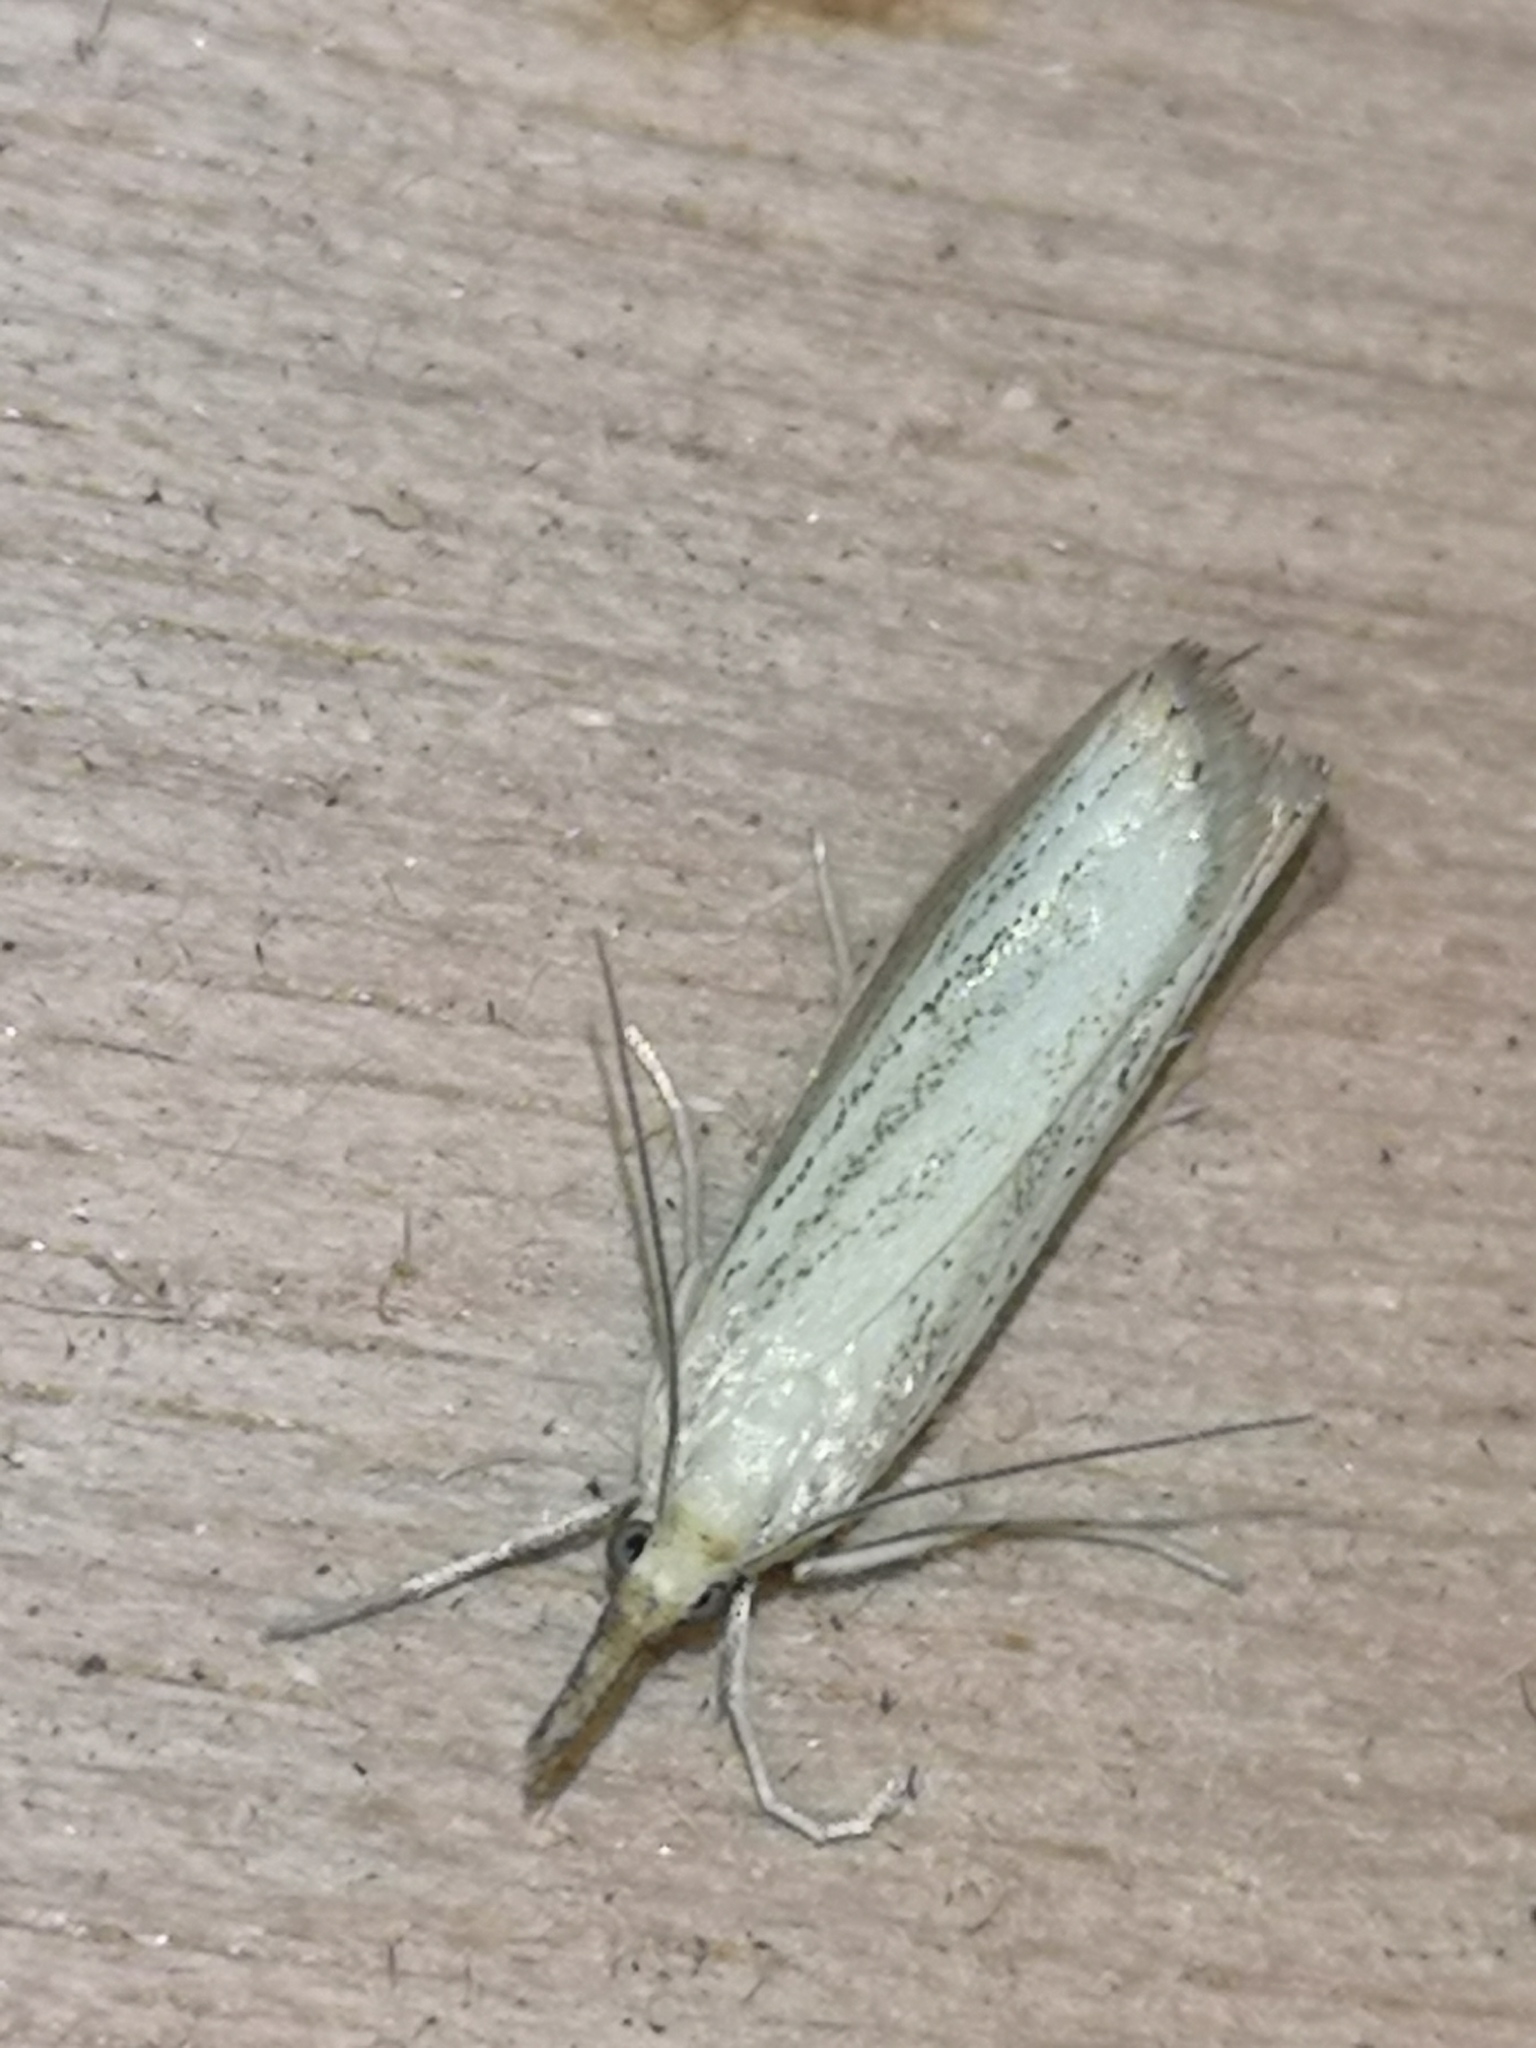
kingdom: Animalia
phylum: Arthropoda
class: Insecta
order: Lepidoptera
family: Crambidae
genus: Agriphila
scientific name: Agriphila straminella
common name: Straw grass-veneer
